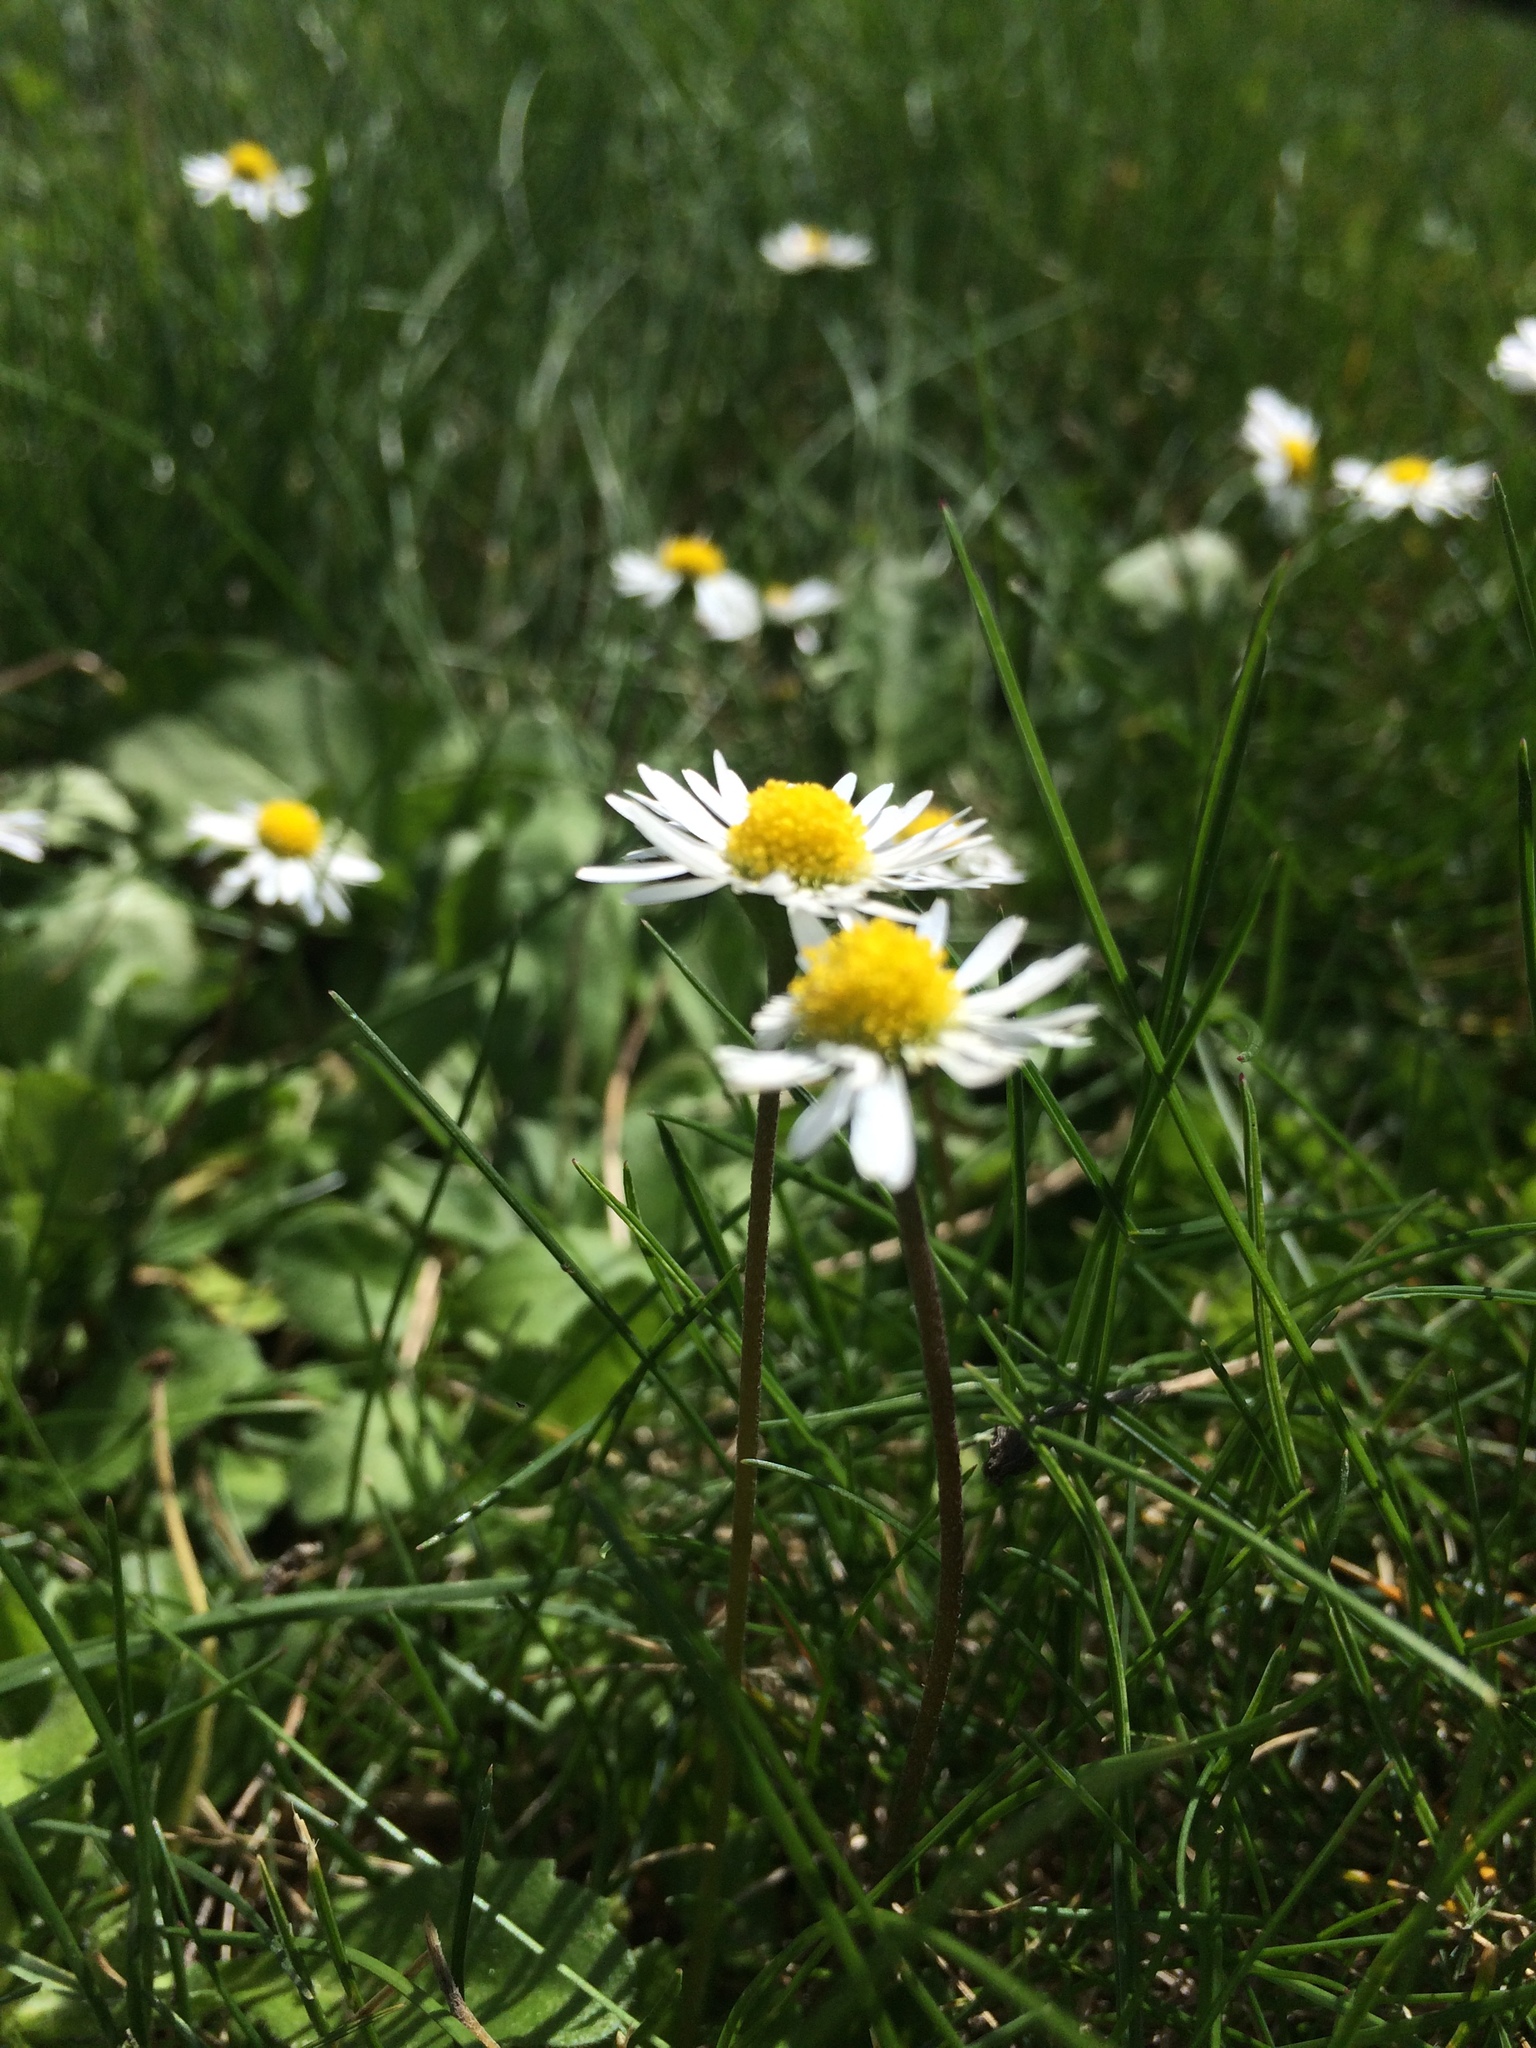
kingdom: Plantae
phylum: Tracheophyta
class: Magnoliopsida
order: Asterales
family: Asteraceae
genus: Bellis
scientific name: Bellis perennis
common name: Lawndaisy
